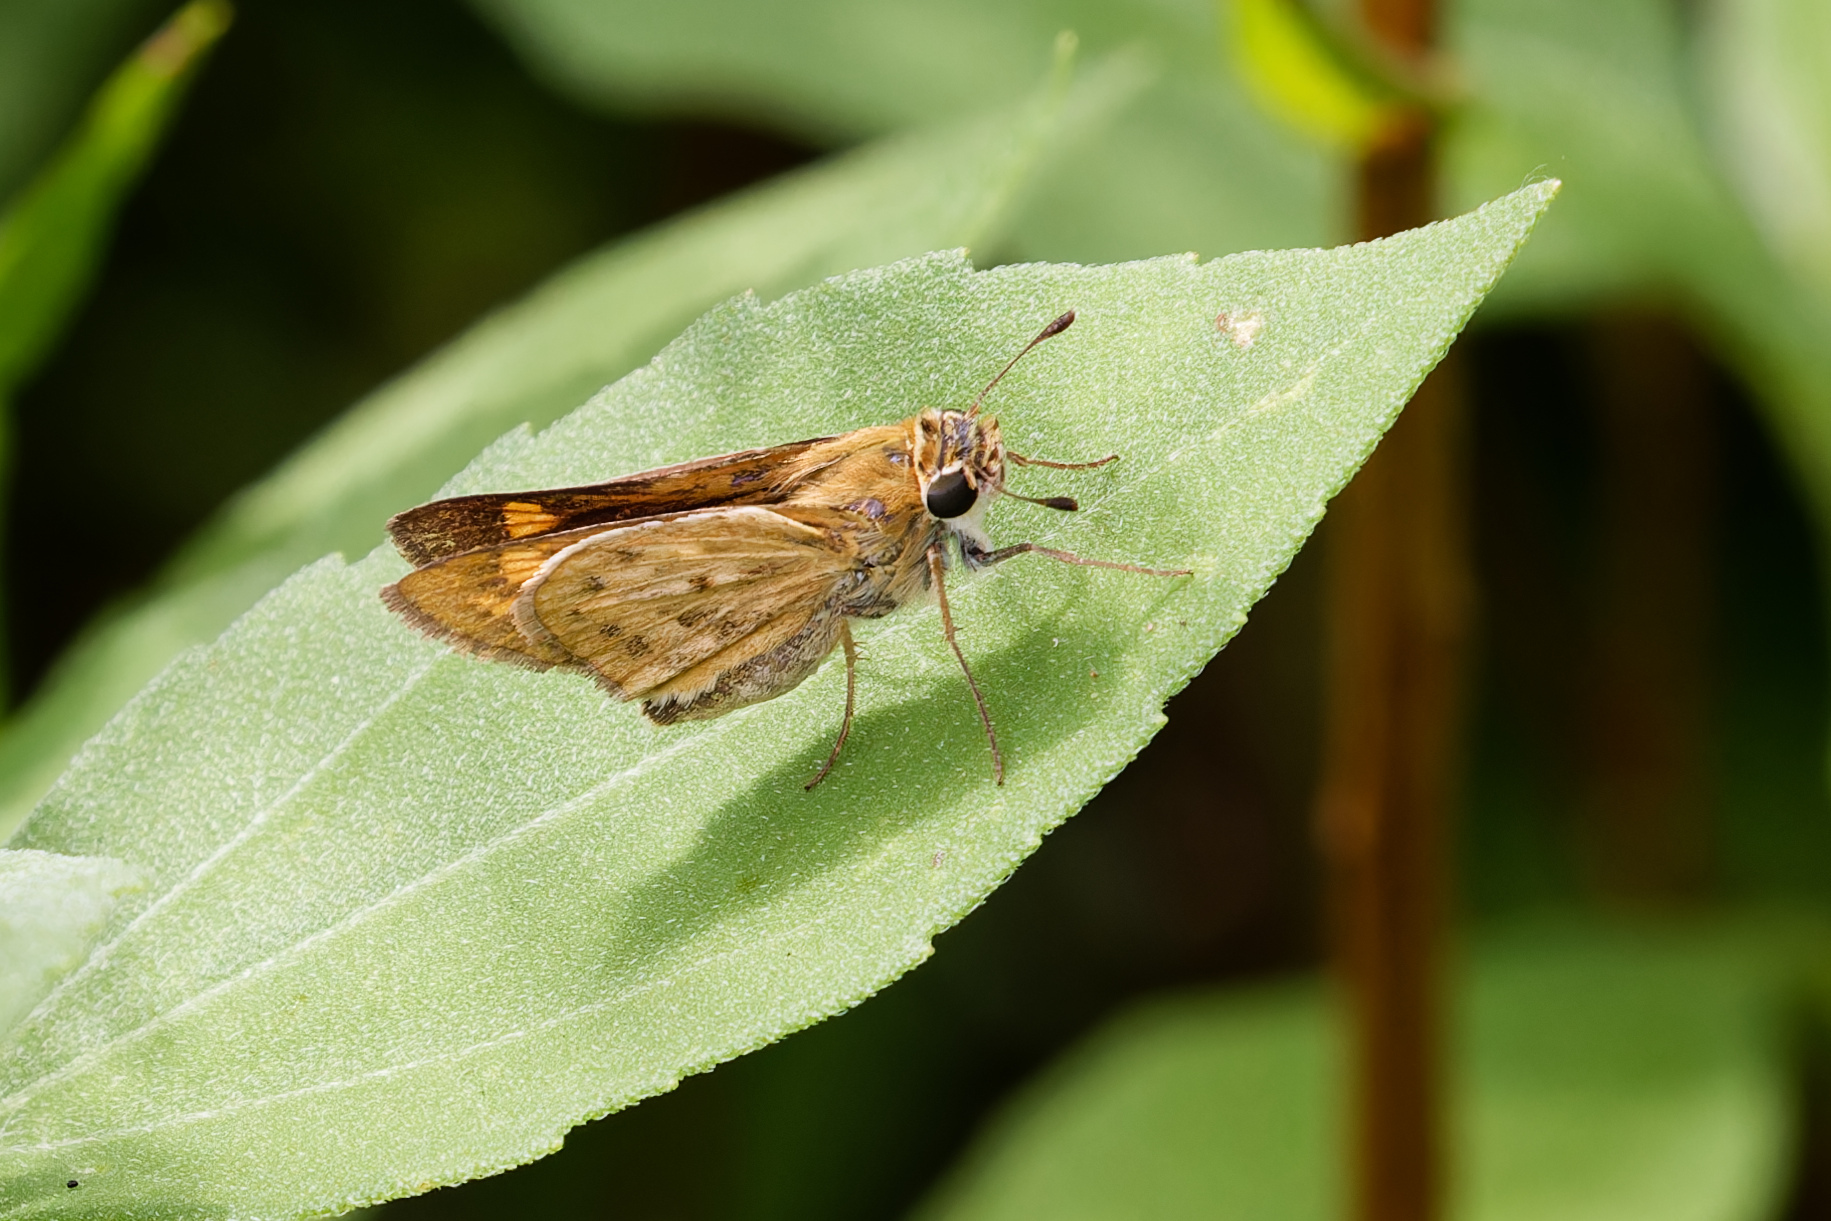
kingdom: Animalia
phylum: Arthropoda
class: Insecta
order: Lepidoptera
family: Hesperiidae
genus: Hylephila
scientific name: Hylephila phyleus
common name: Fiery skipper
